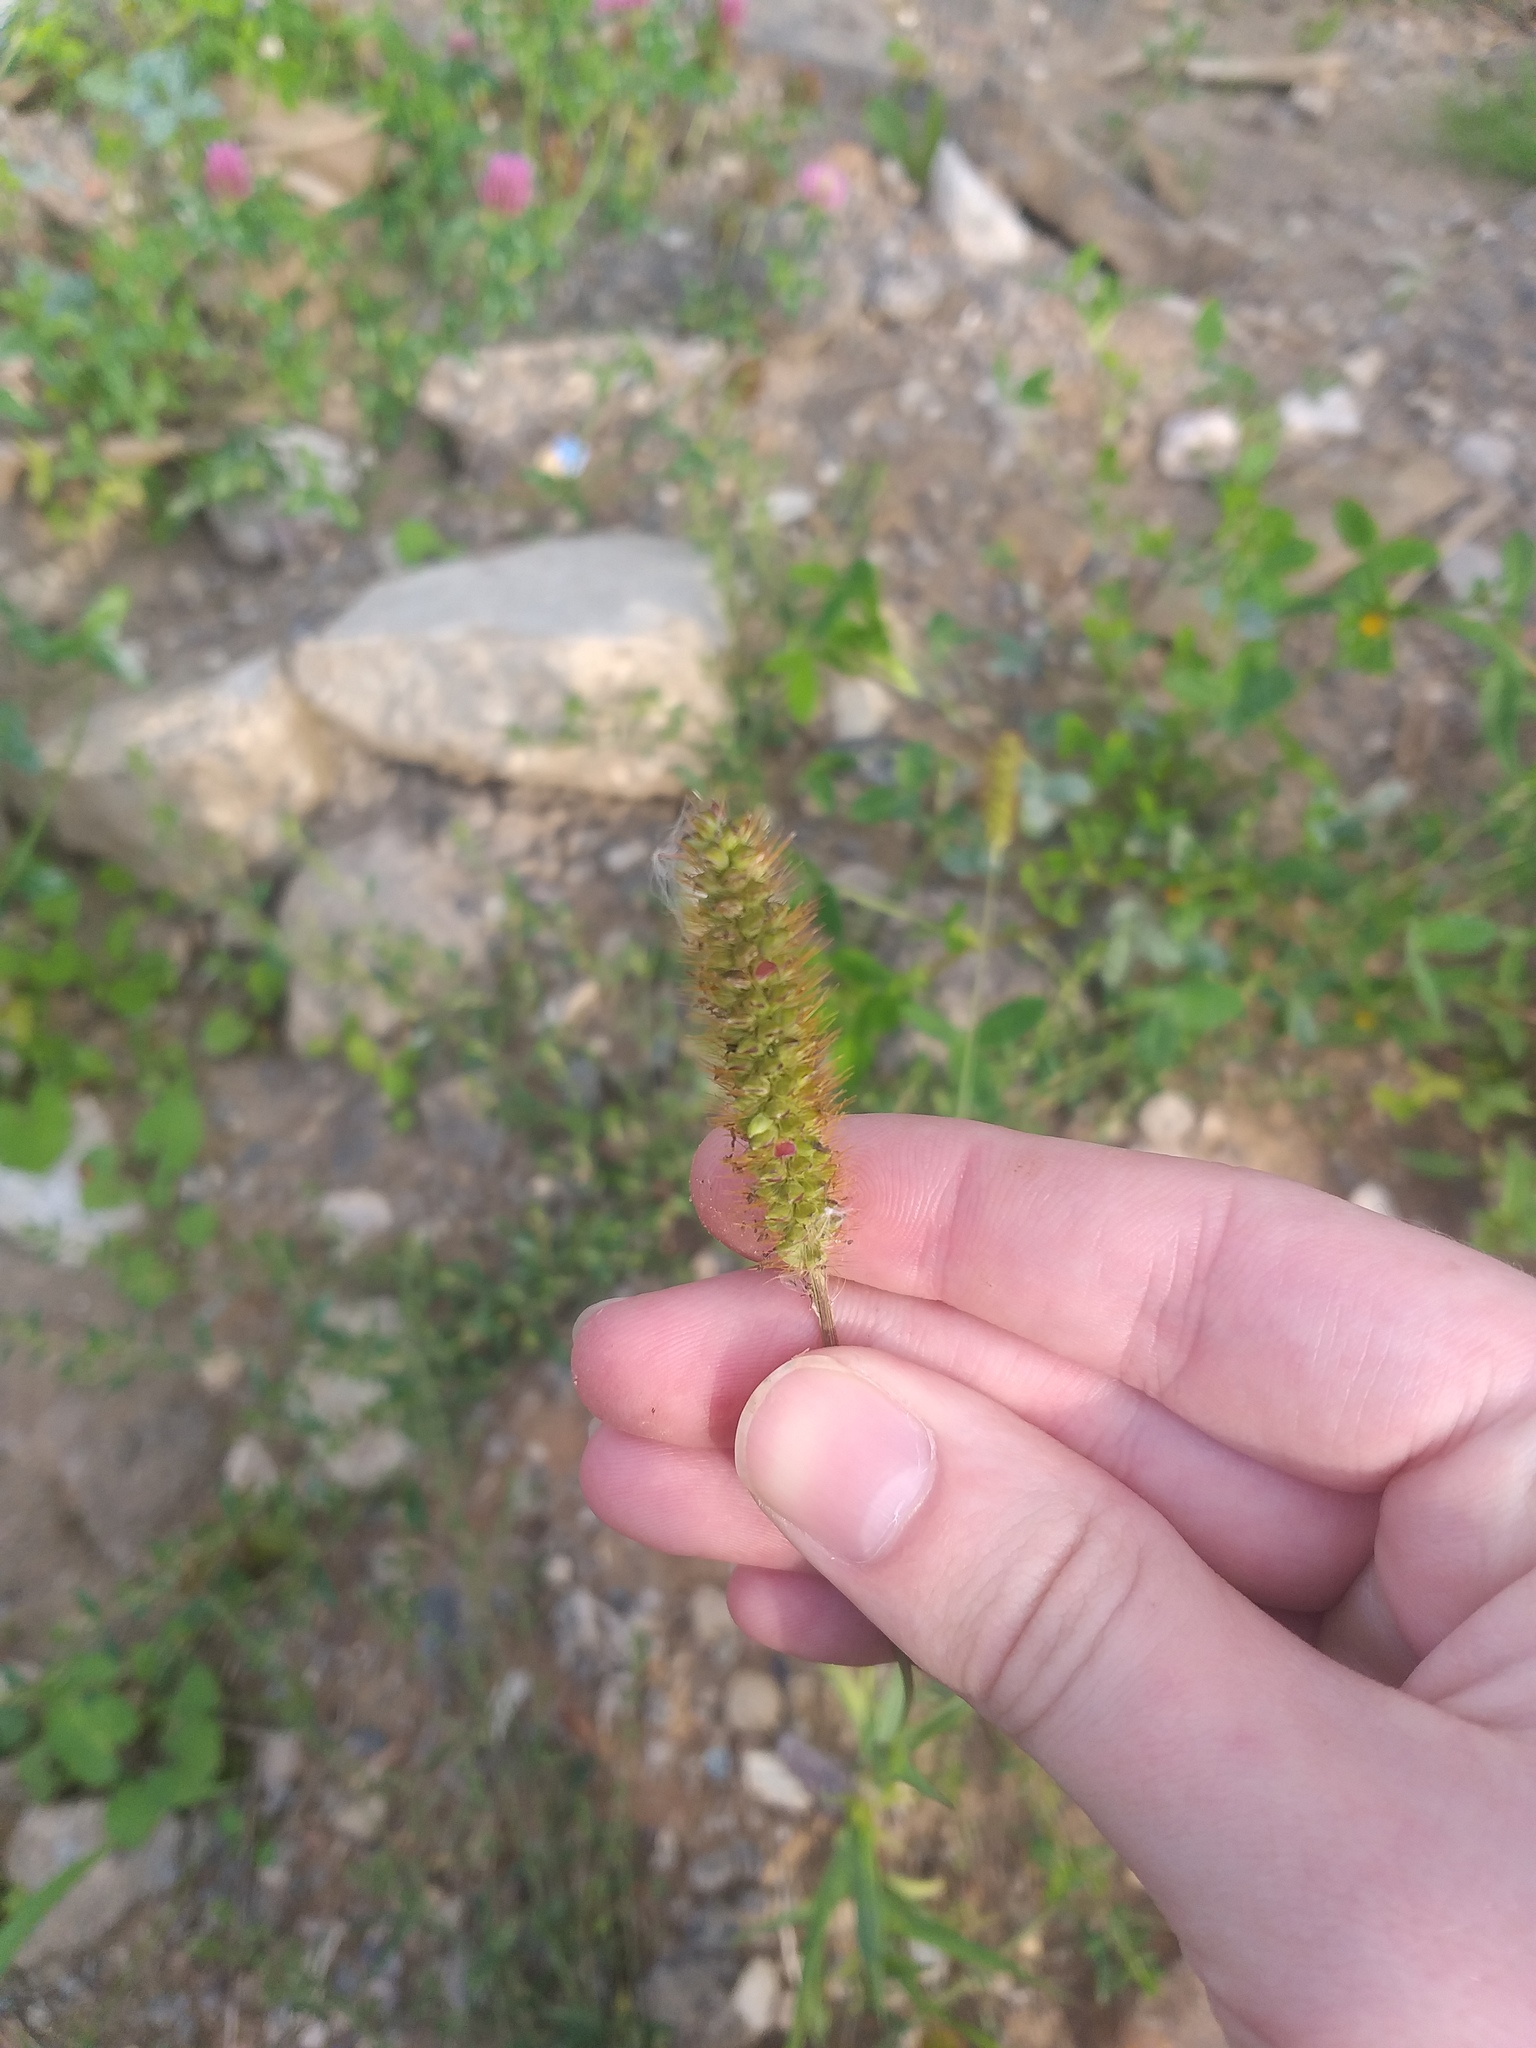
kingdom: Plantae
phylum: Tracheophyta
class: Liliopsida
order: Poales
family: Poaceae
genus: Setaria
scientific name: Setaria pumila
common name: Yellow bristle-grass
